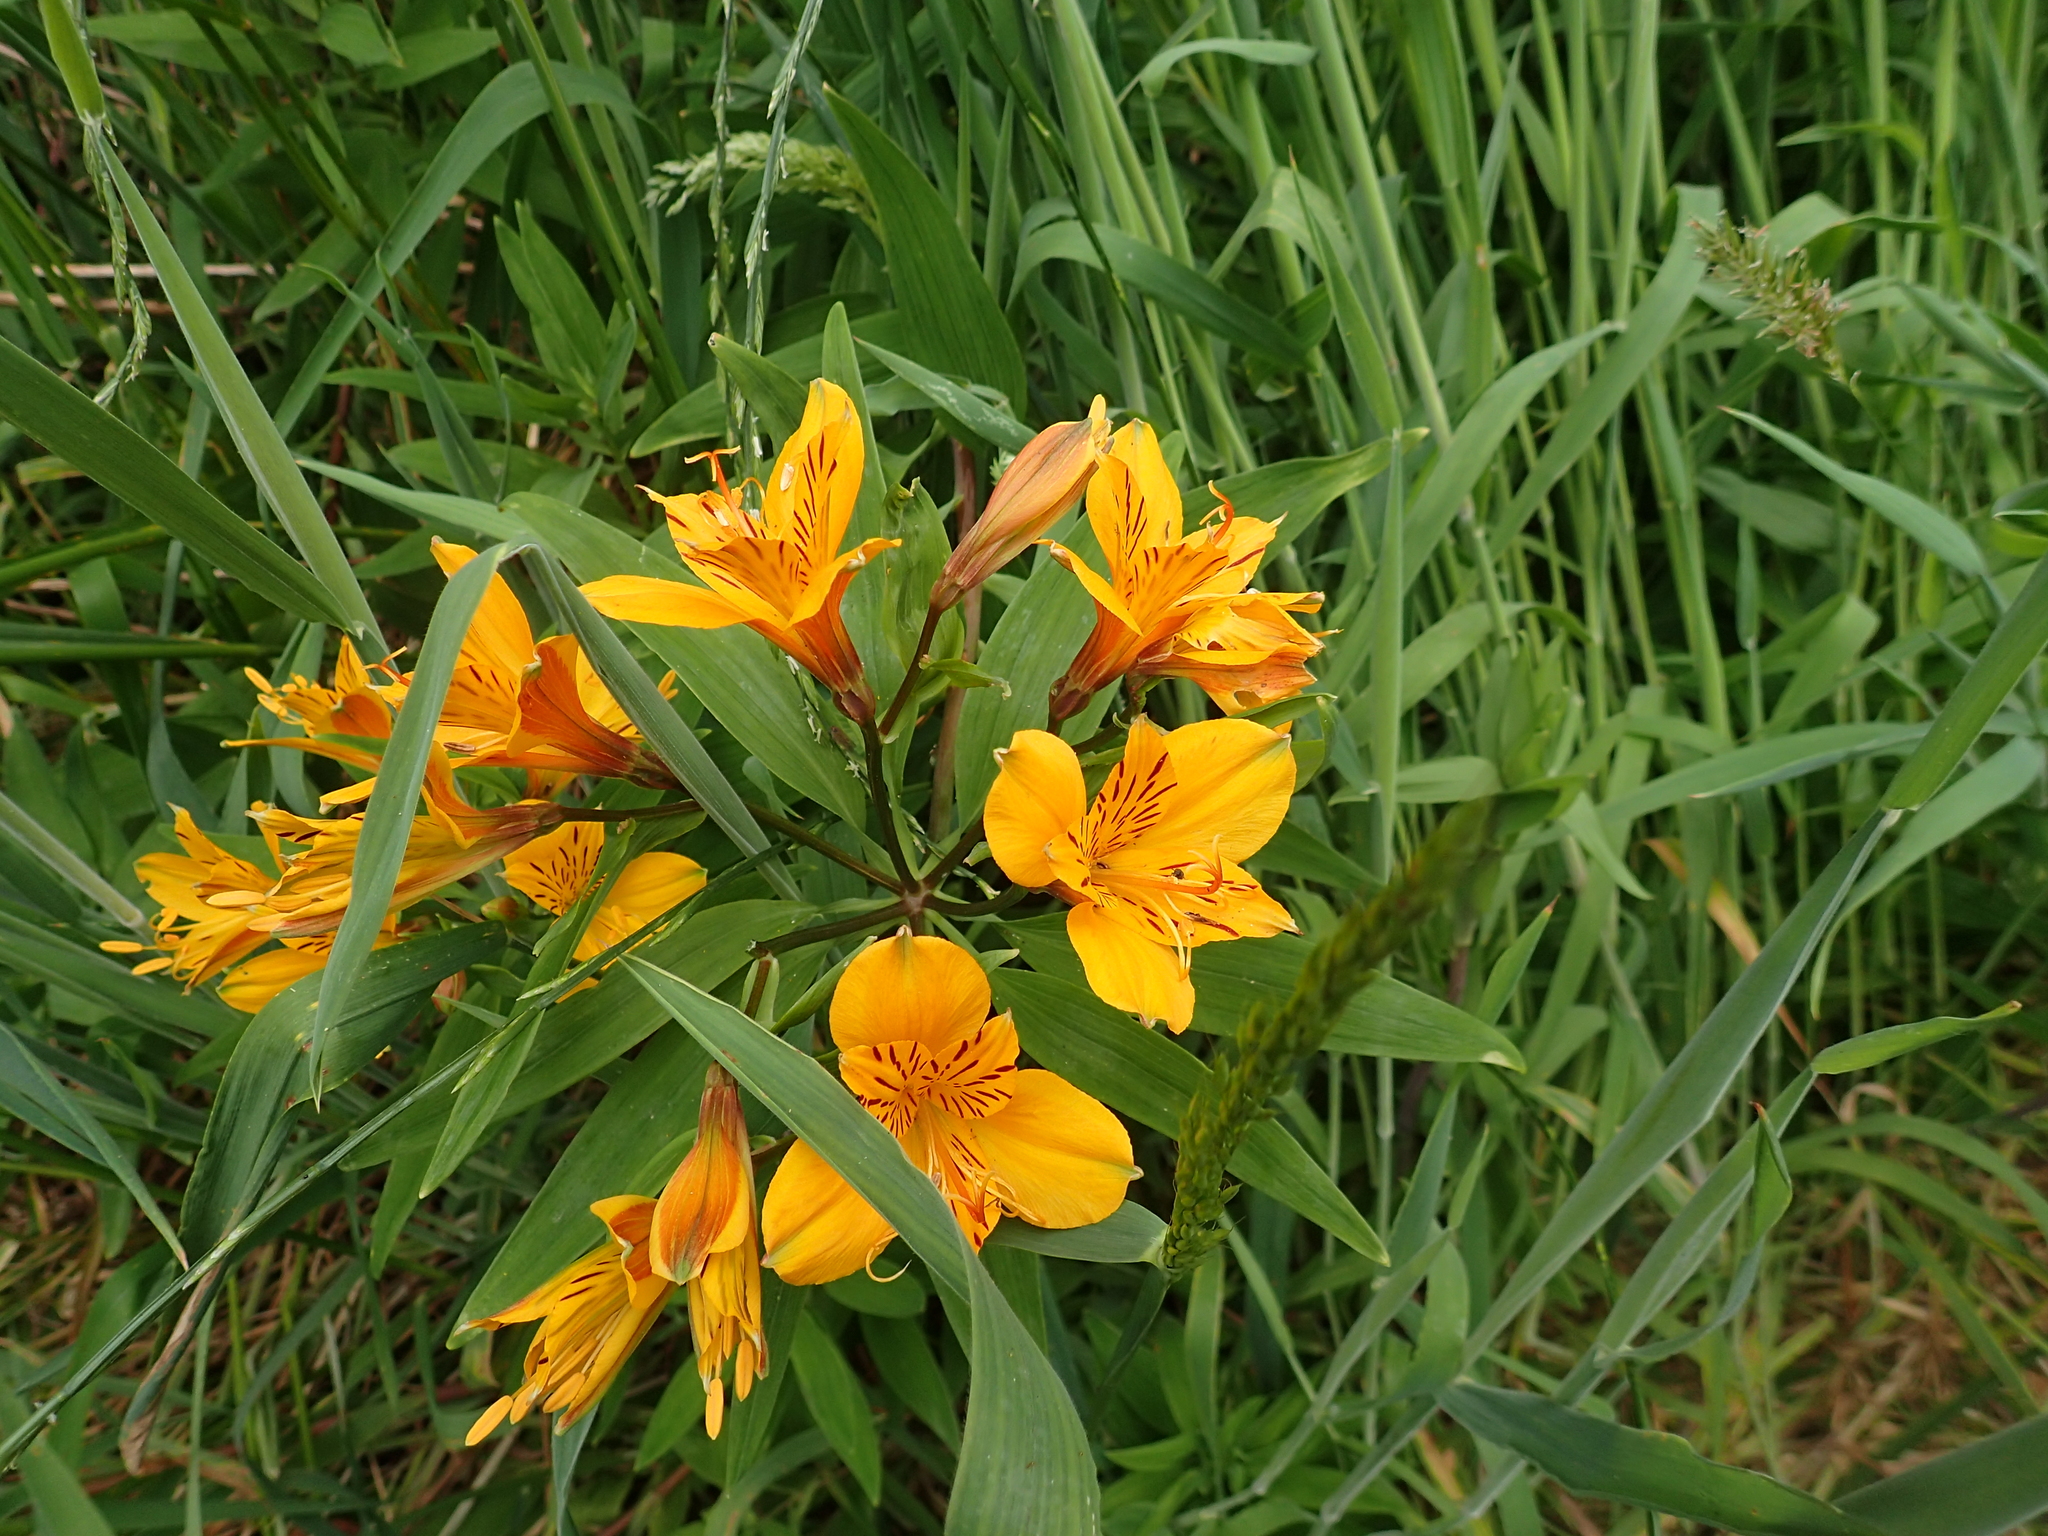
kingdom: Plantae
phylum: Tracheophyta
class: Liliopsida
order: Liliales
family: Alstroemeriaceae
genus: Alstroemeria
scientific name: Alstroemeria aurea
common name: Peruvian lily
